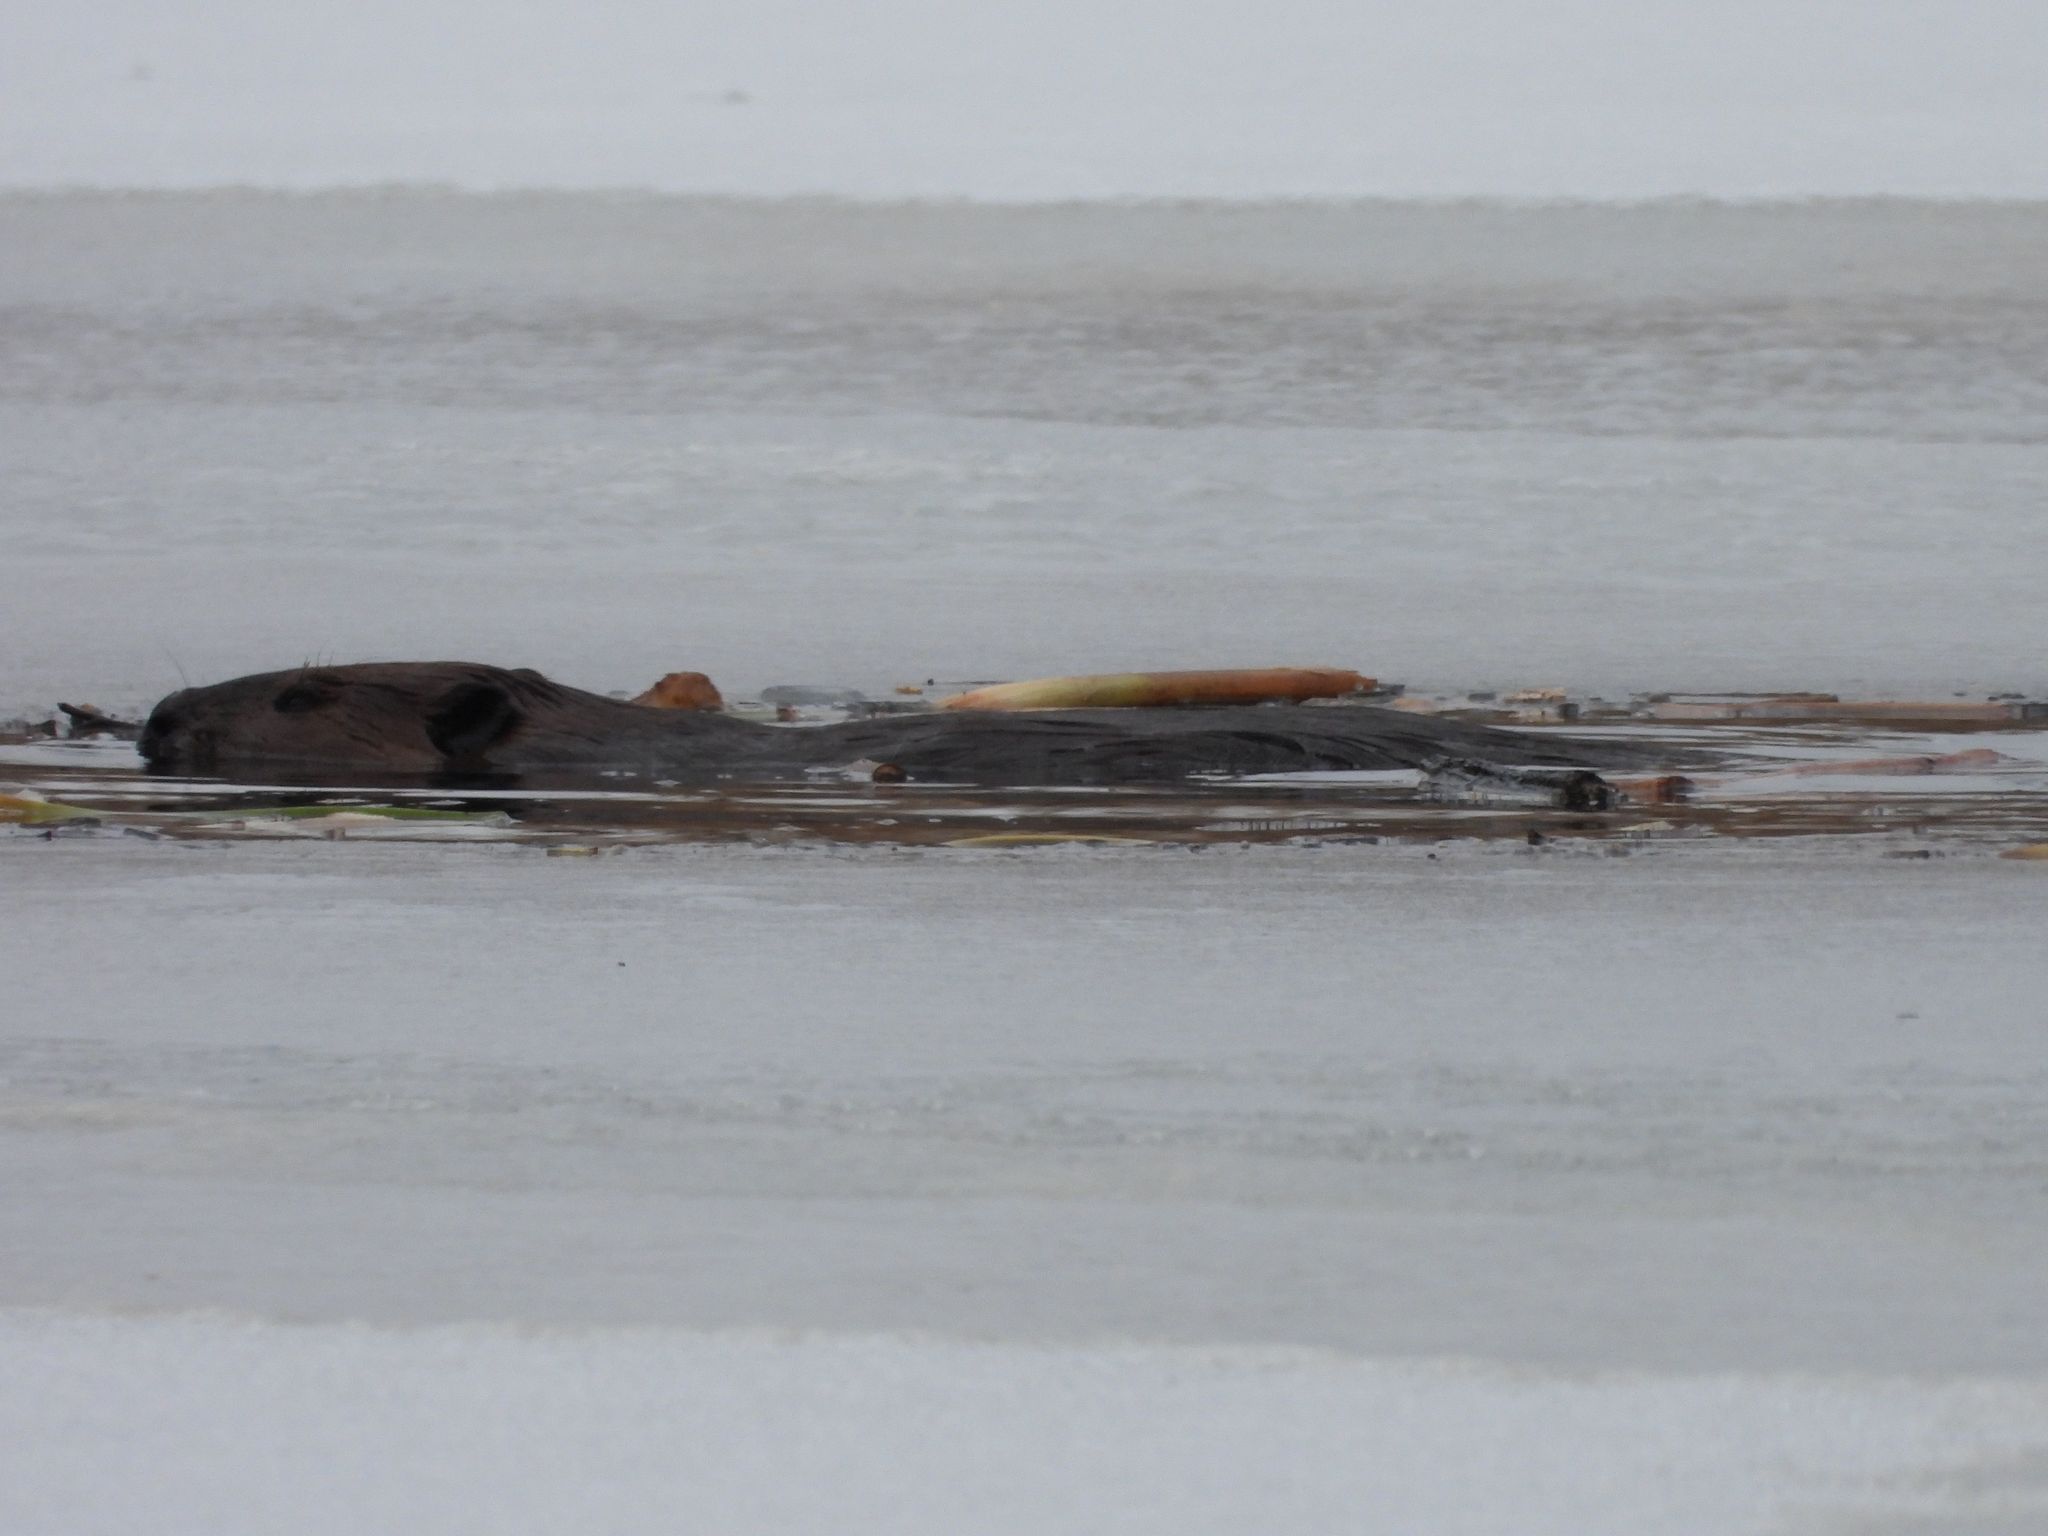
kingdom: Animalia
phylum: Chordata
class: Mammalia
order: Rodentia
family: Castoridae
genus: Castor
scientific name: Castor canadensis
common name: American beaver
